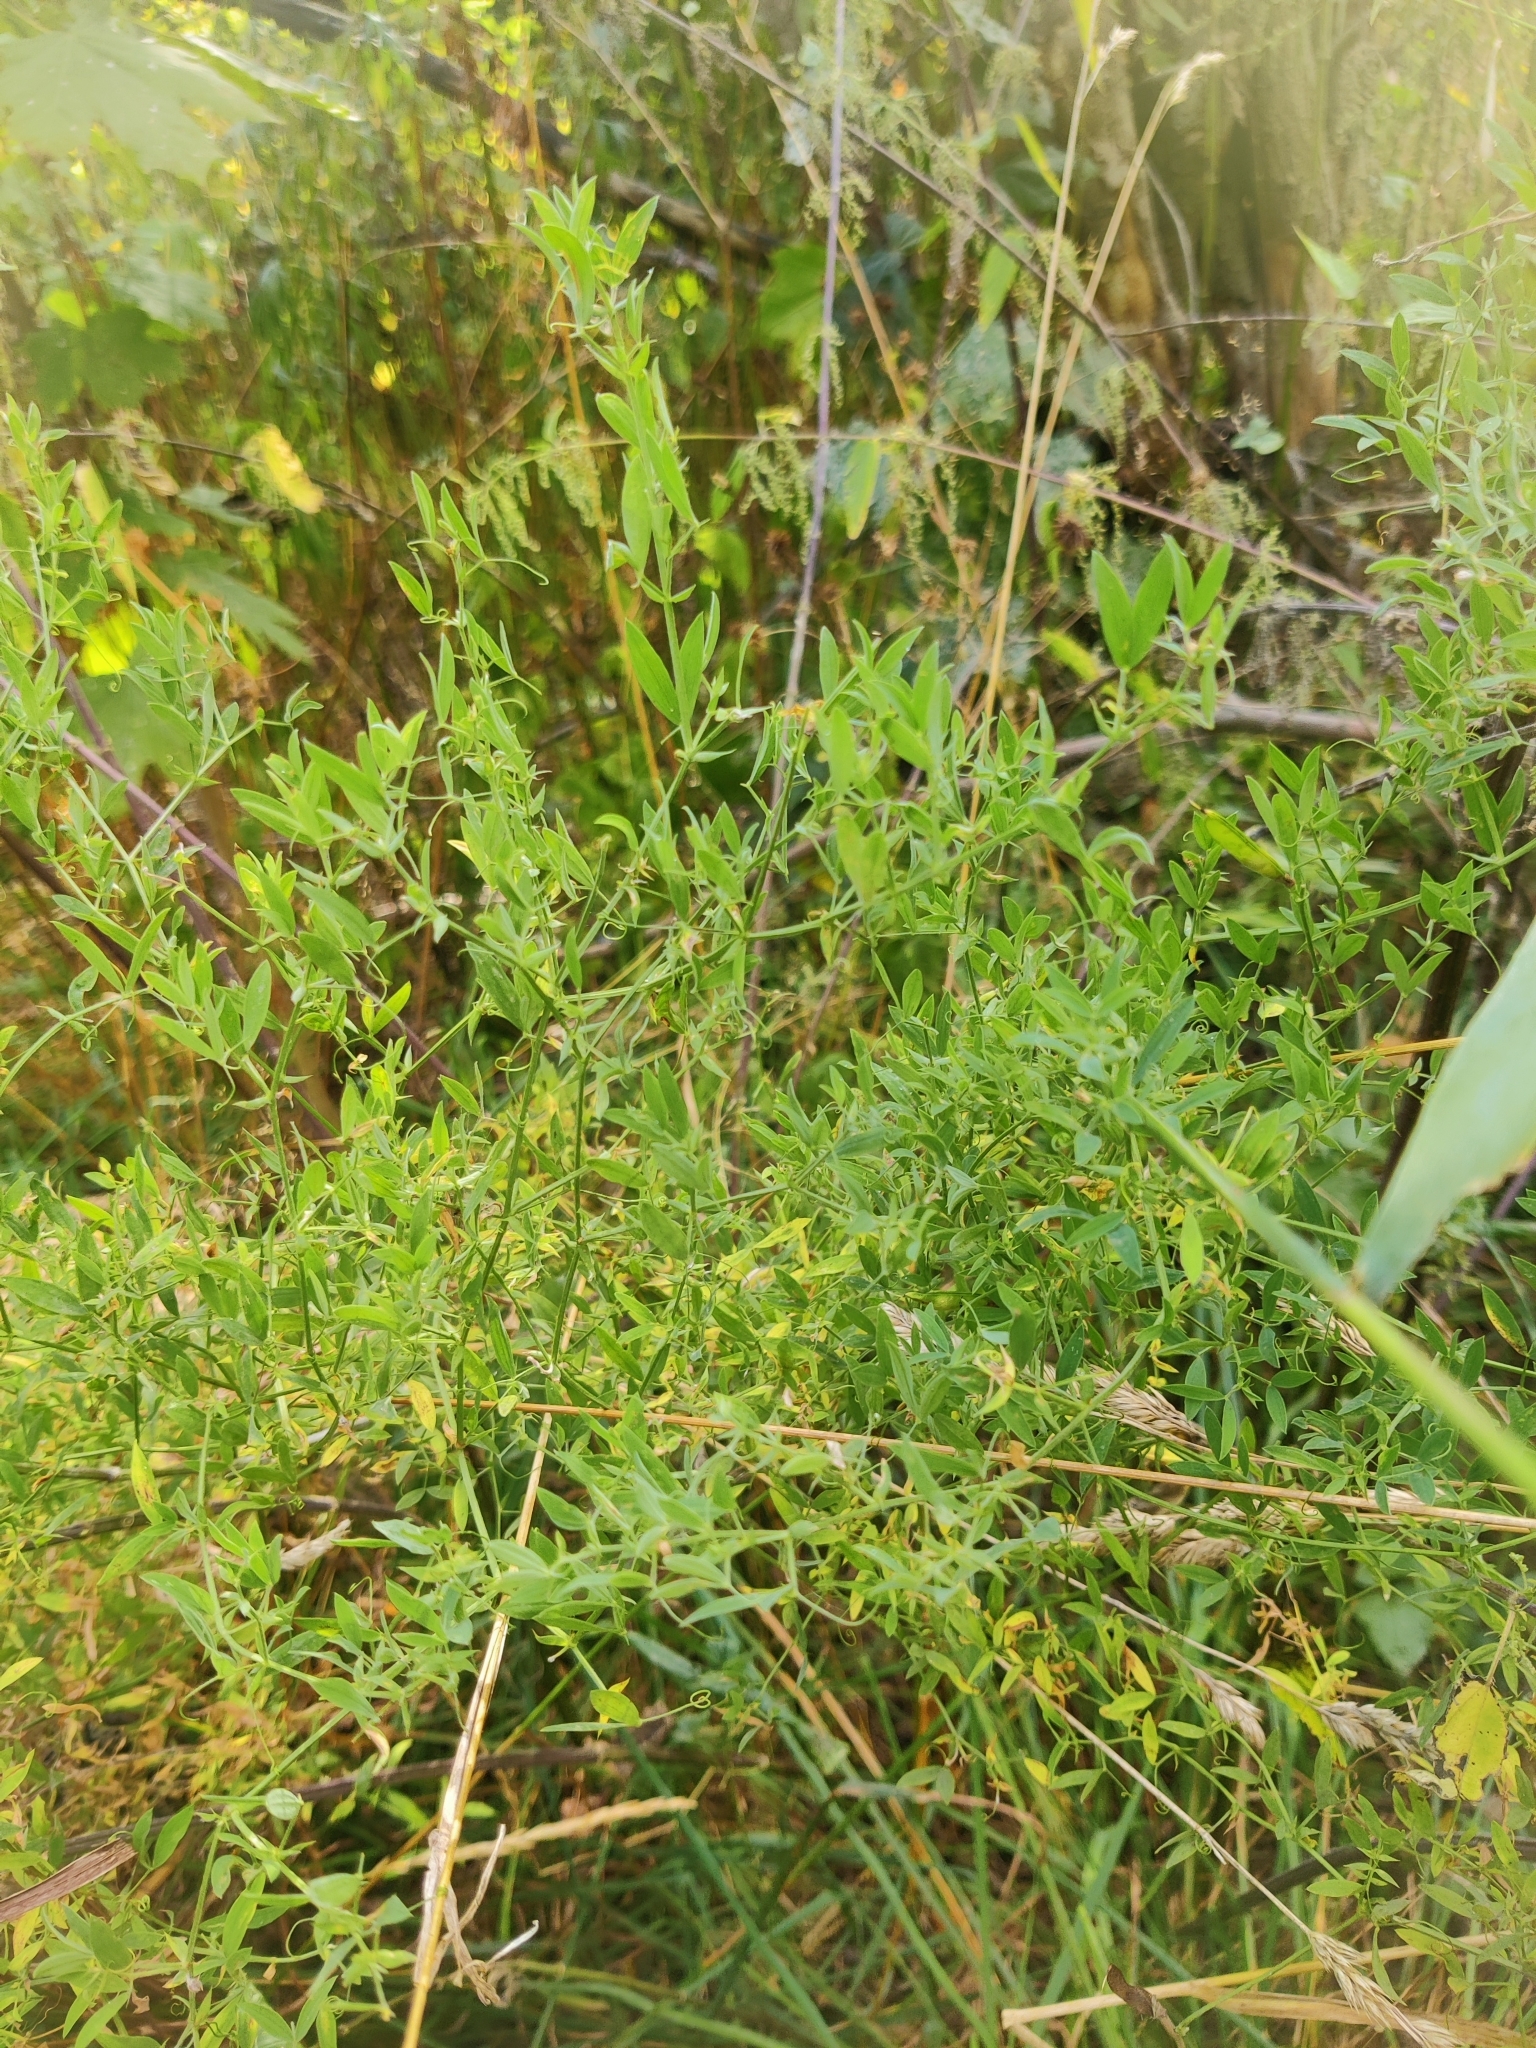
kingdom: Plantae
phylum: Tracheophyta
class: Magnoliopsida
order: Fabales
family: Fabaceae
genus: Lathyrus
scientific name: Lathyrus pratensis
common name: Meadow vetchling
